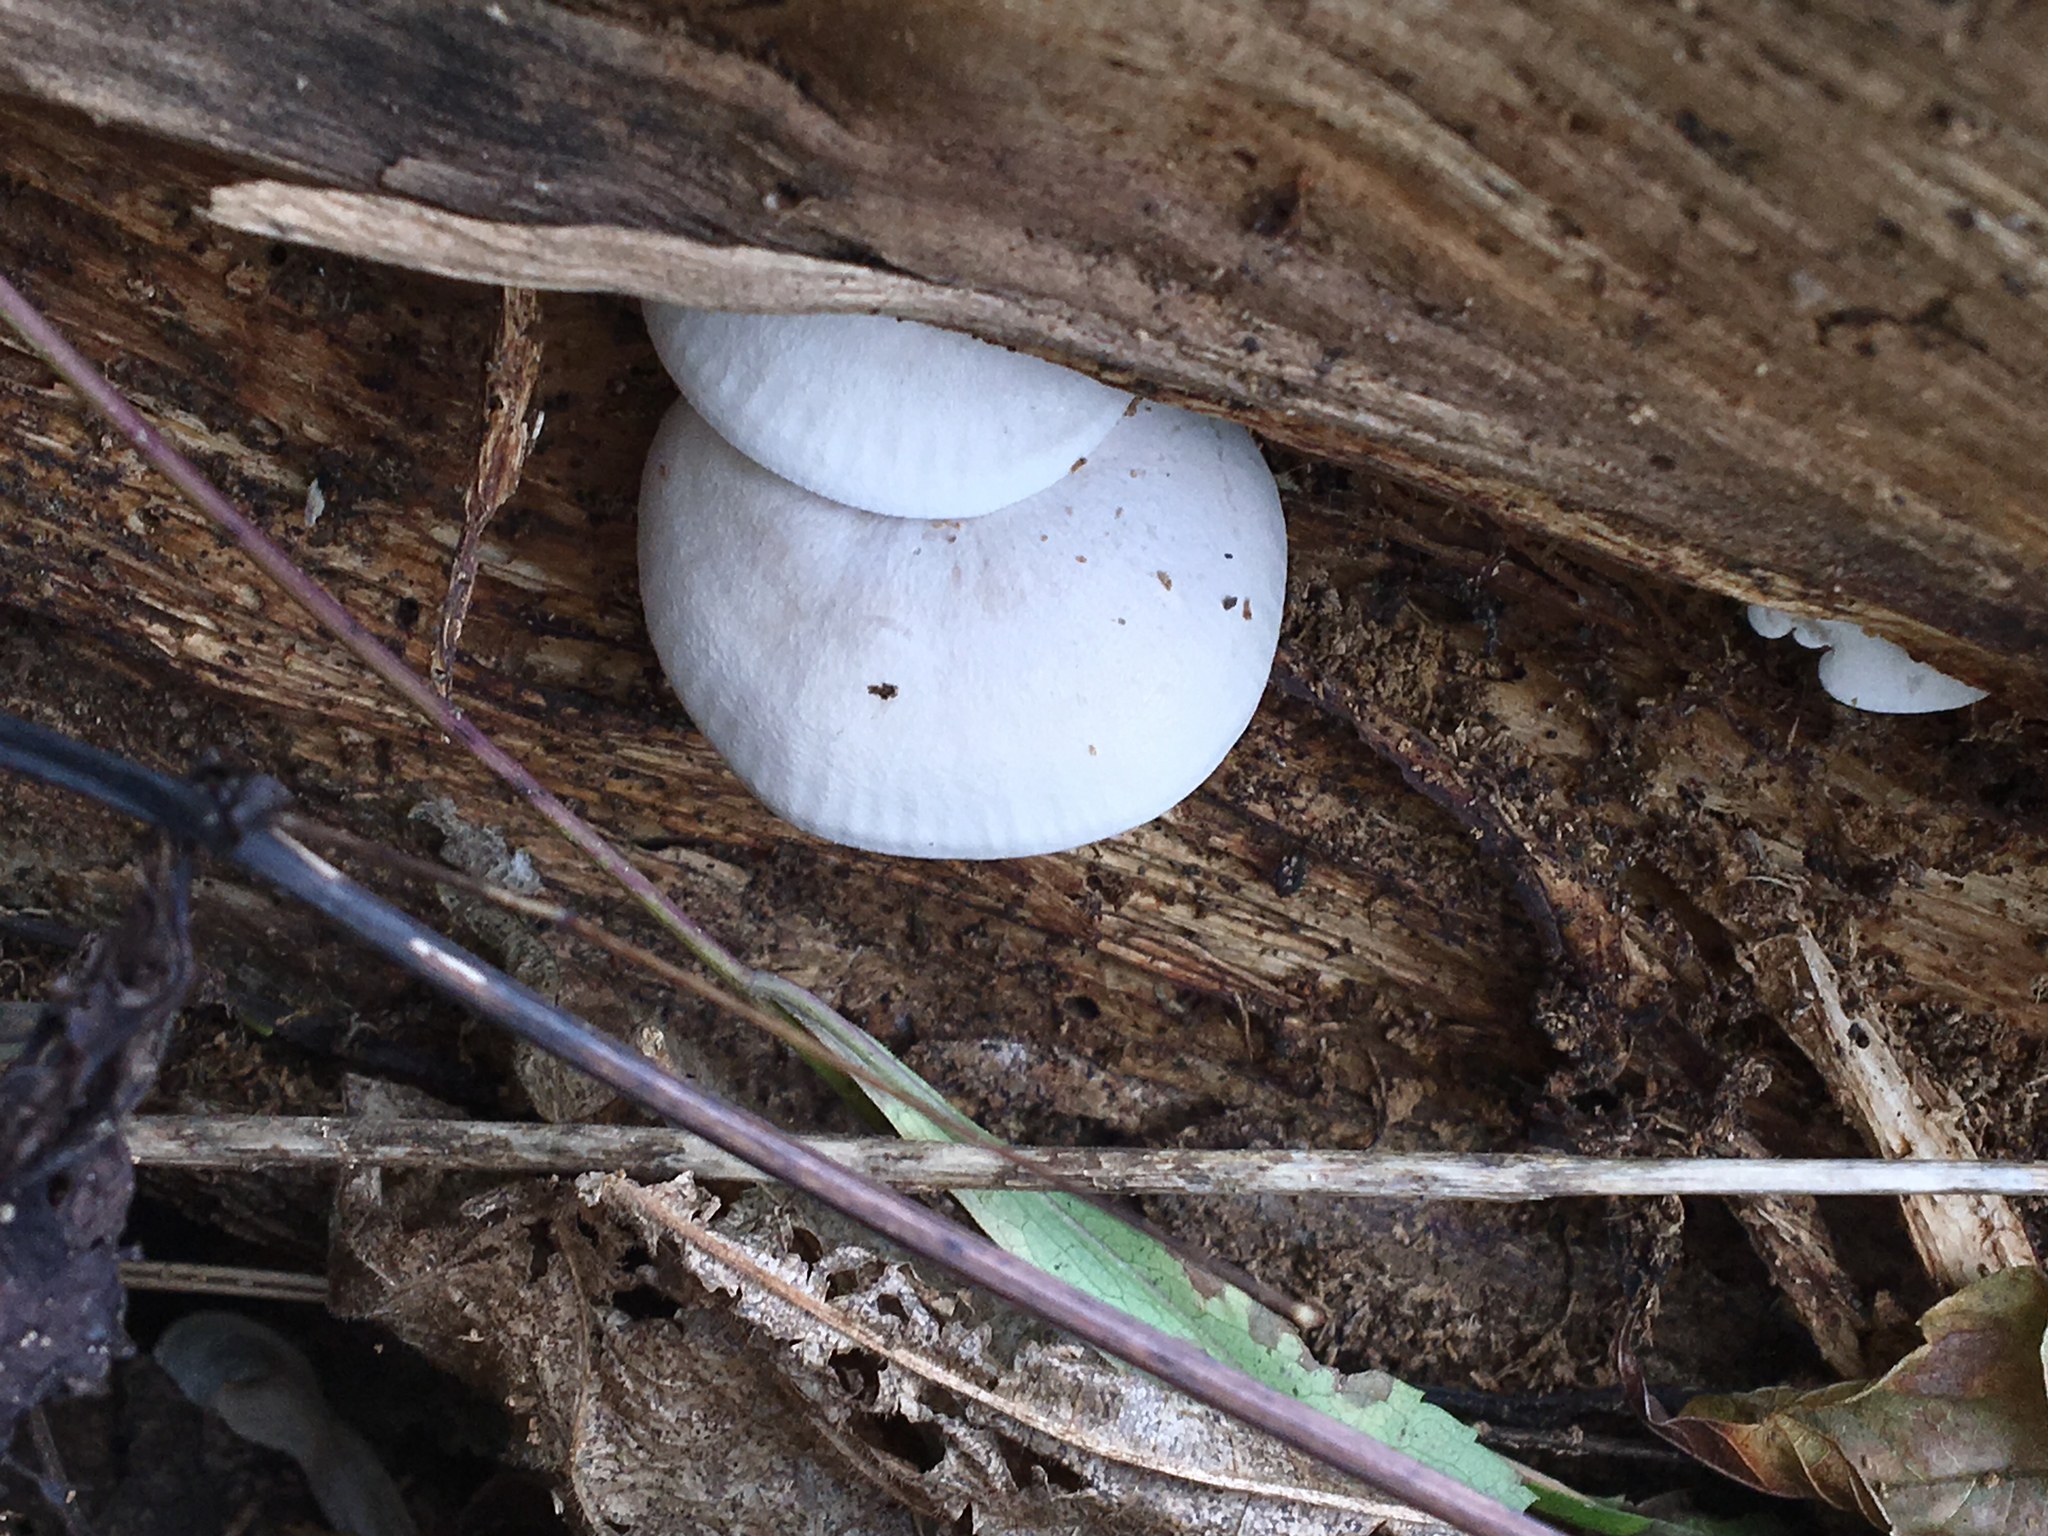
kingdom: Fungi
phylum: Basidiomycota
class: Agaricomycetes
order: Agaricales
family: Lyophyllaceae
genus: Ossicaulis
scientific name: Ossicaulis lignatilis
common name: Mealy oyster
